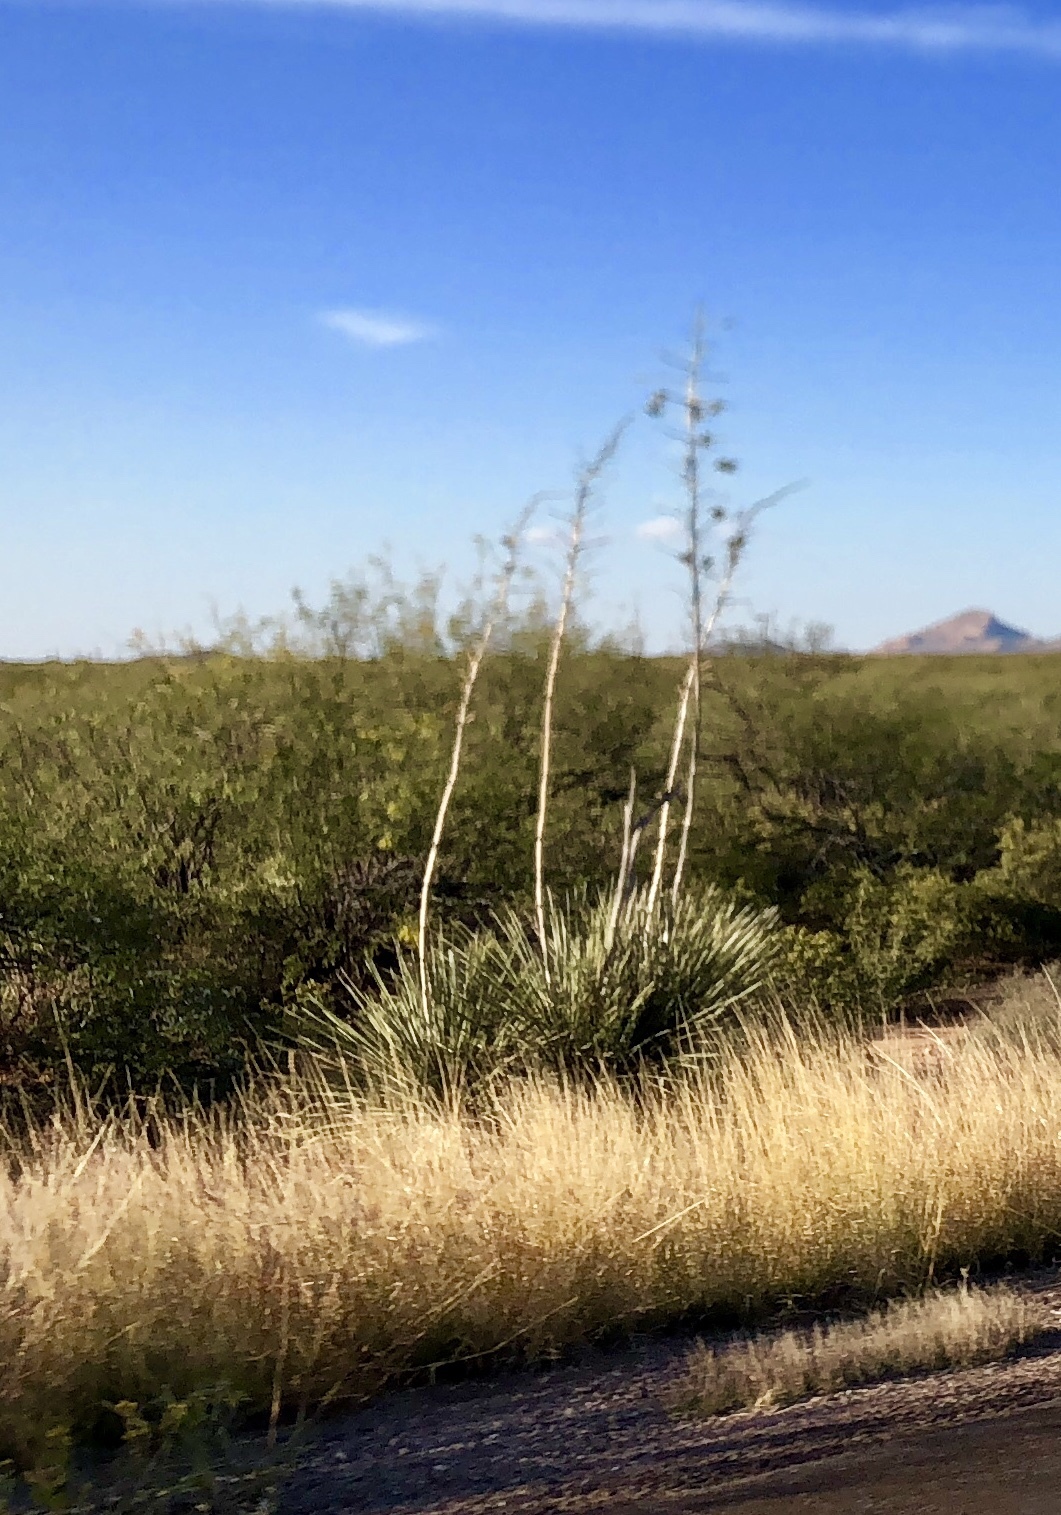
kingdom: Plantae
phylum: Tracheophyta
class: Liliopsida
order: Asparagales
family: Asparagaceae
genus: Yucca
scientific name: Yucca elata
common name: Palmella
